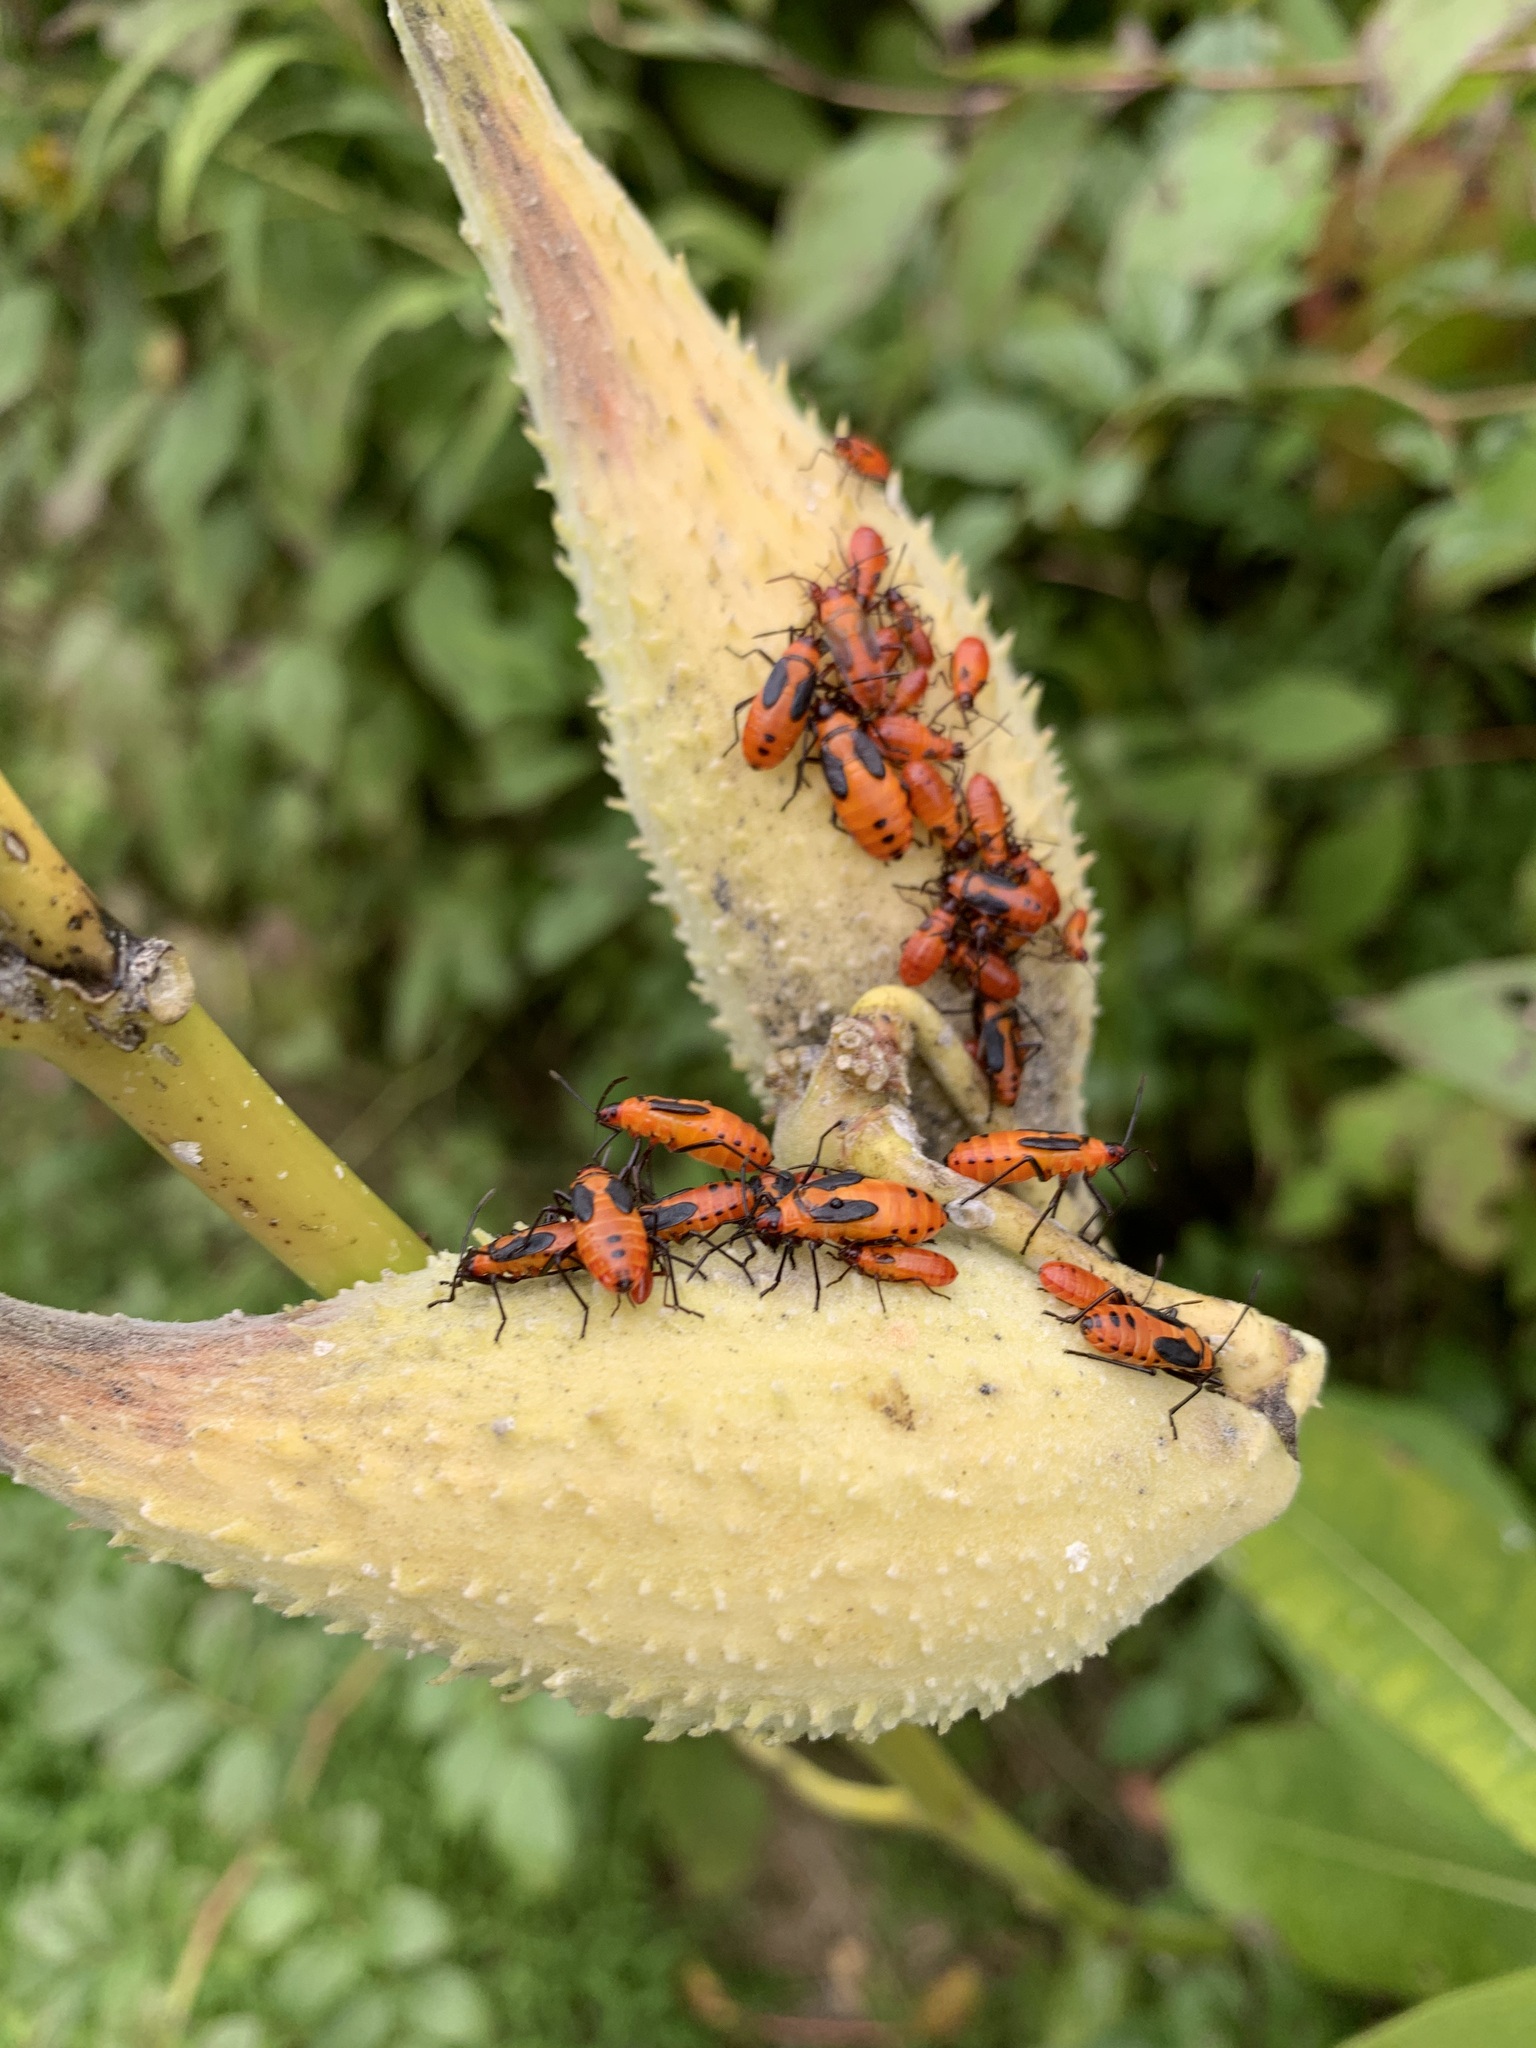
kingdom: Animalia
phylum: Arthropoda
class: Insecta
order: Hemiptera
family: Lygaeidae
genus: Oncopeltus
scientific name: Oncopeltus fasciatus
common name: Large milkweed bug
